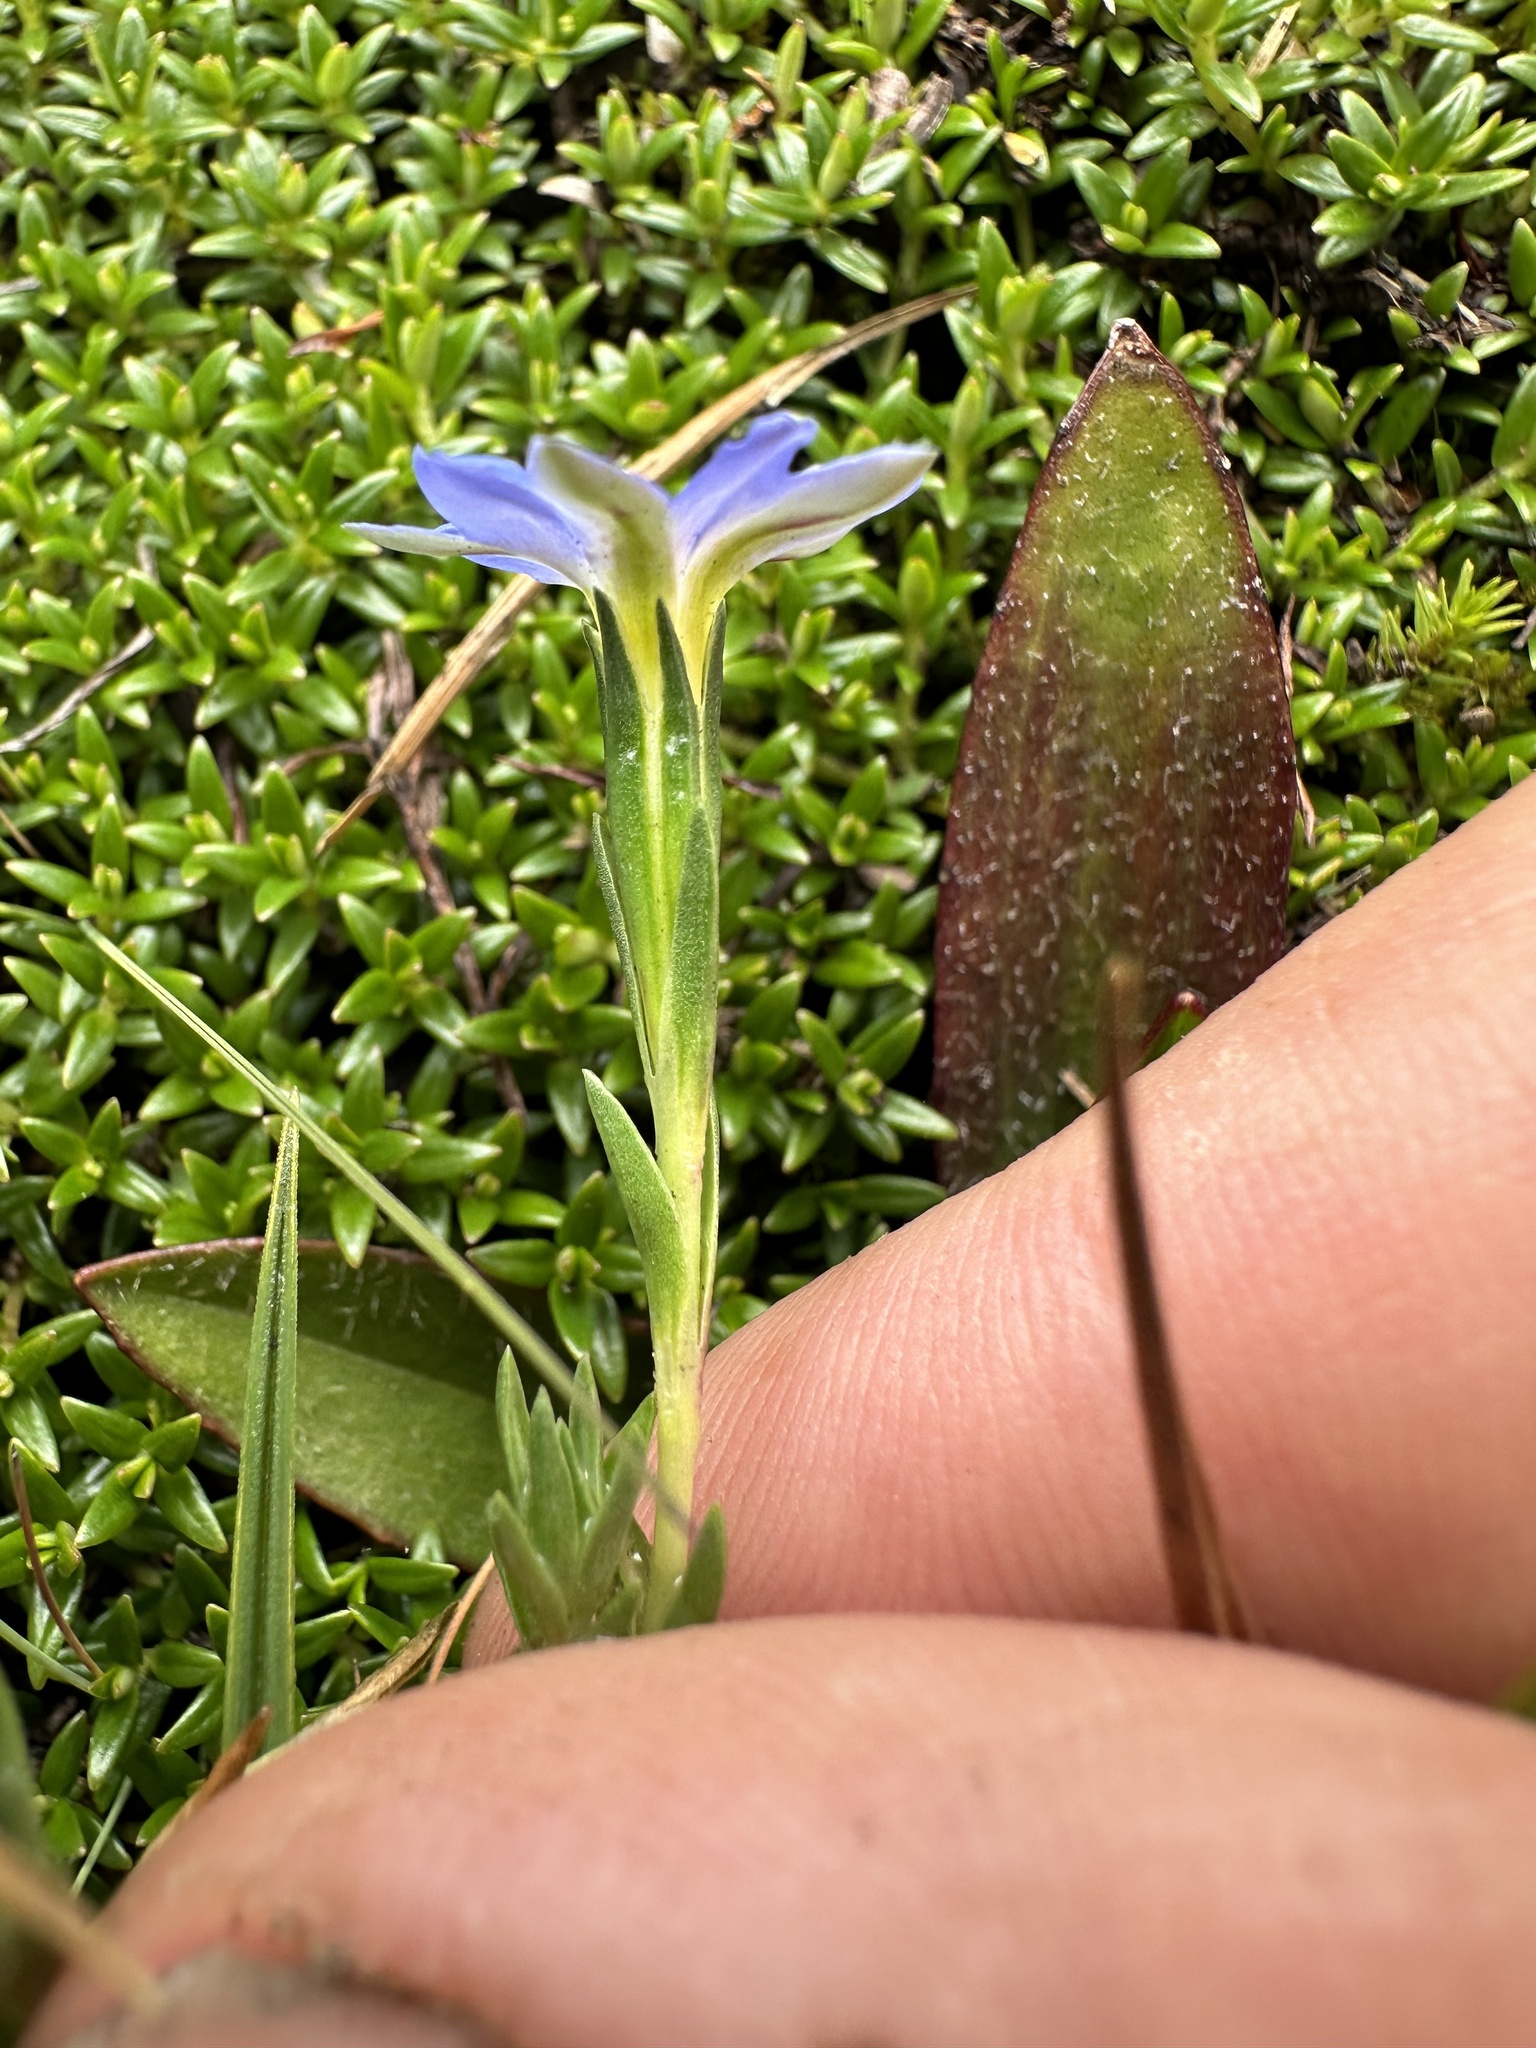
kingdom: Plantae
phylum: Tracheophyta
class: Magnoliopsida
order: Gentianales
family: Gentianaceae
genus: Gentiana
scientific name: Gentiana sedifolia
